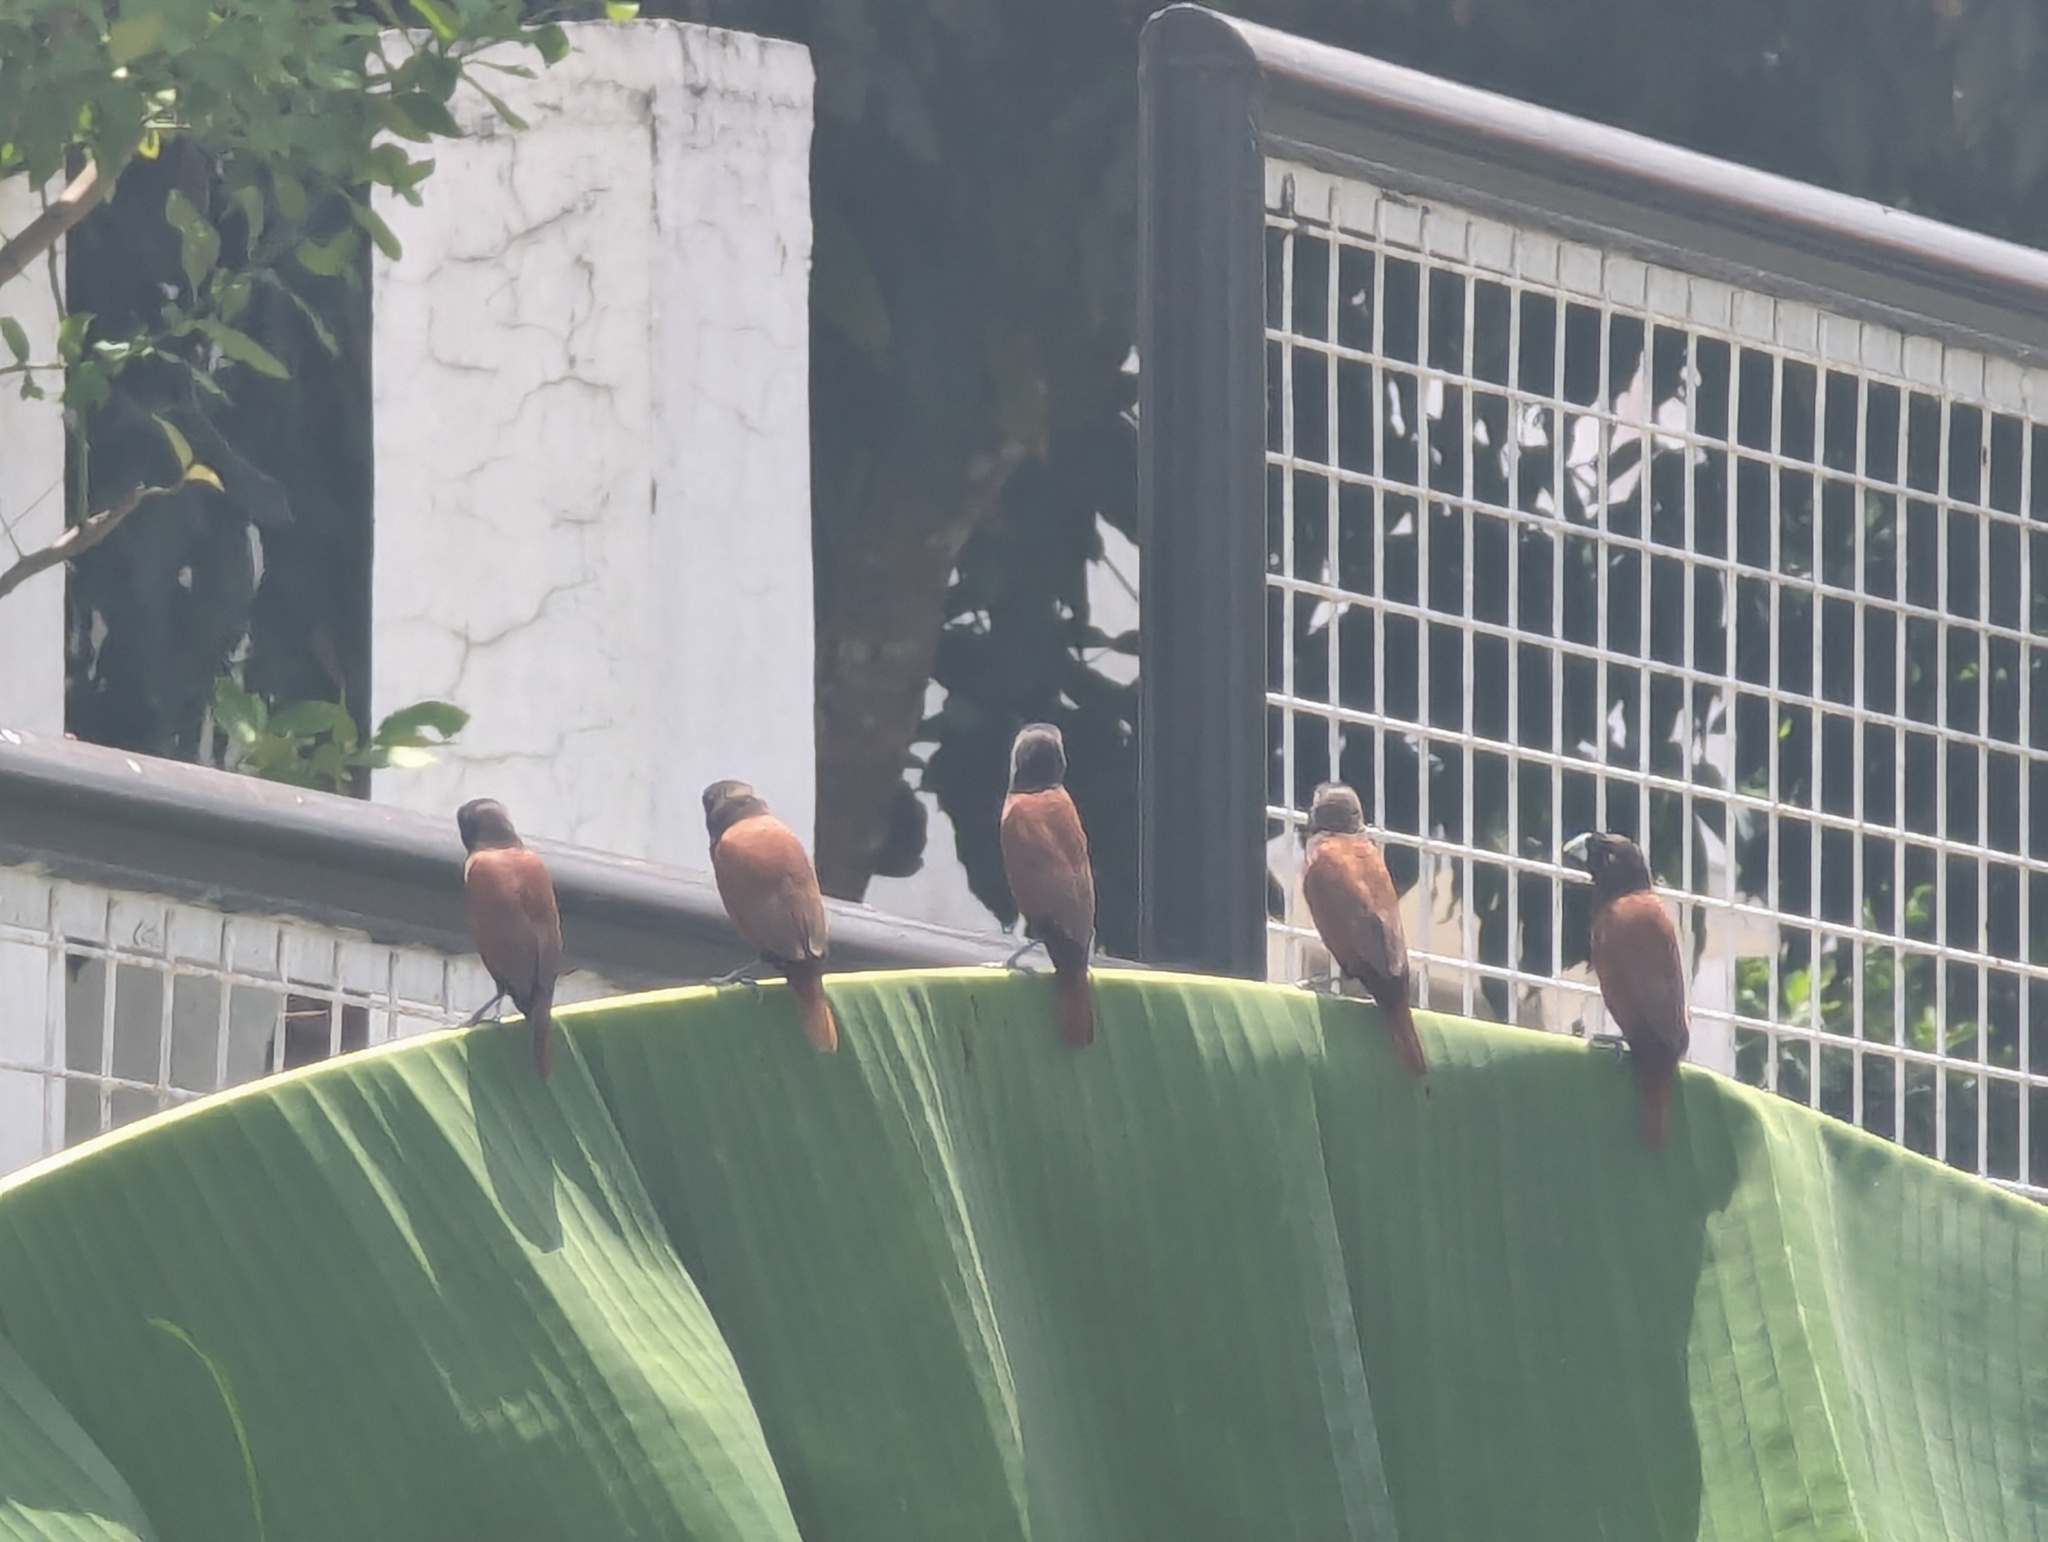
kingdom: Animalia
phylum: Chordata
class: Aves
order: Passeriformes
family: Estrildidae
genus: Lonchura
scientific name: Lonchura atricapilla
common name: Chestnut munia
